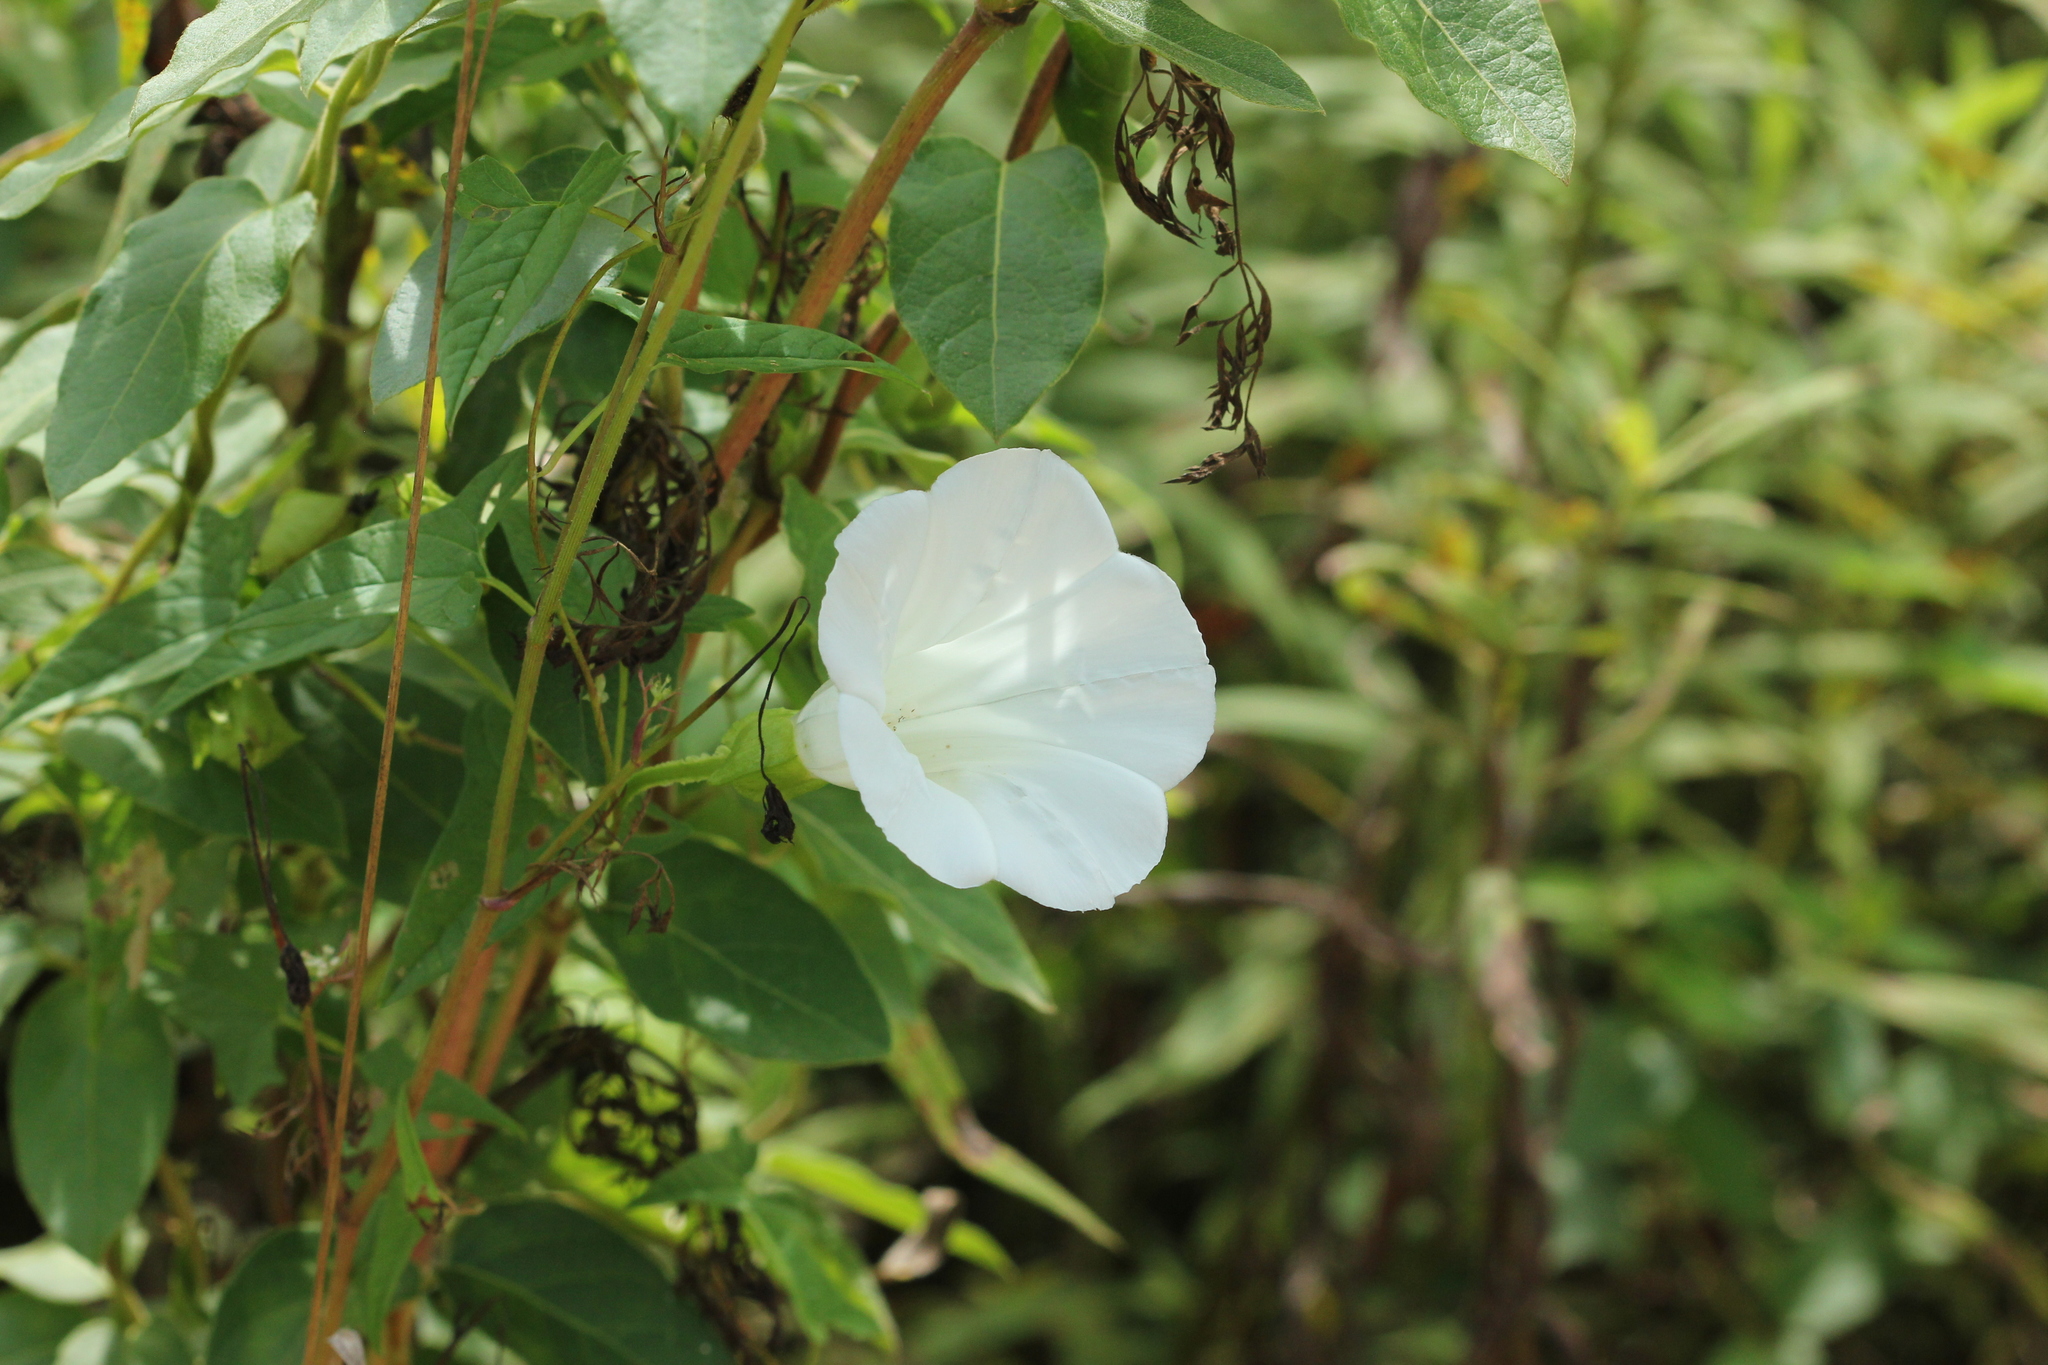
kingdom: Plantae
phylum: Tracheophyta
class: Magnoliopsida
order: Solanales
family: Convolvulaceae
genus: Calystegia
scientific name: Calystegia sepium
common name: Hedge bindweed
